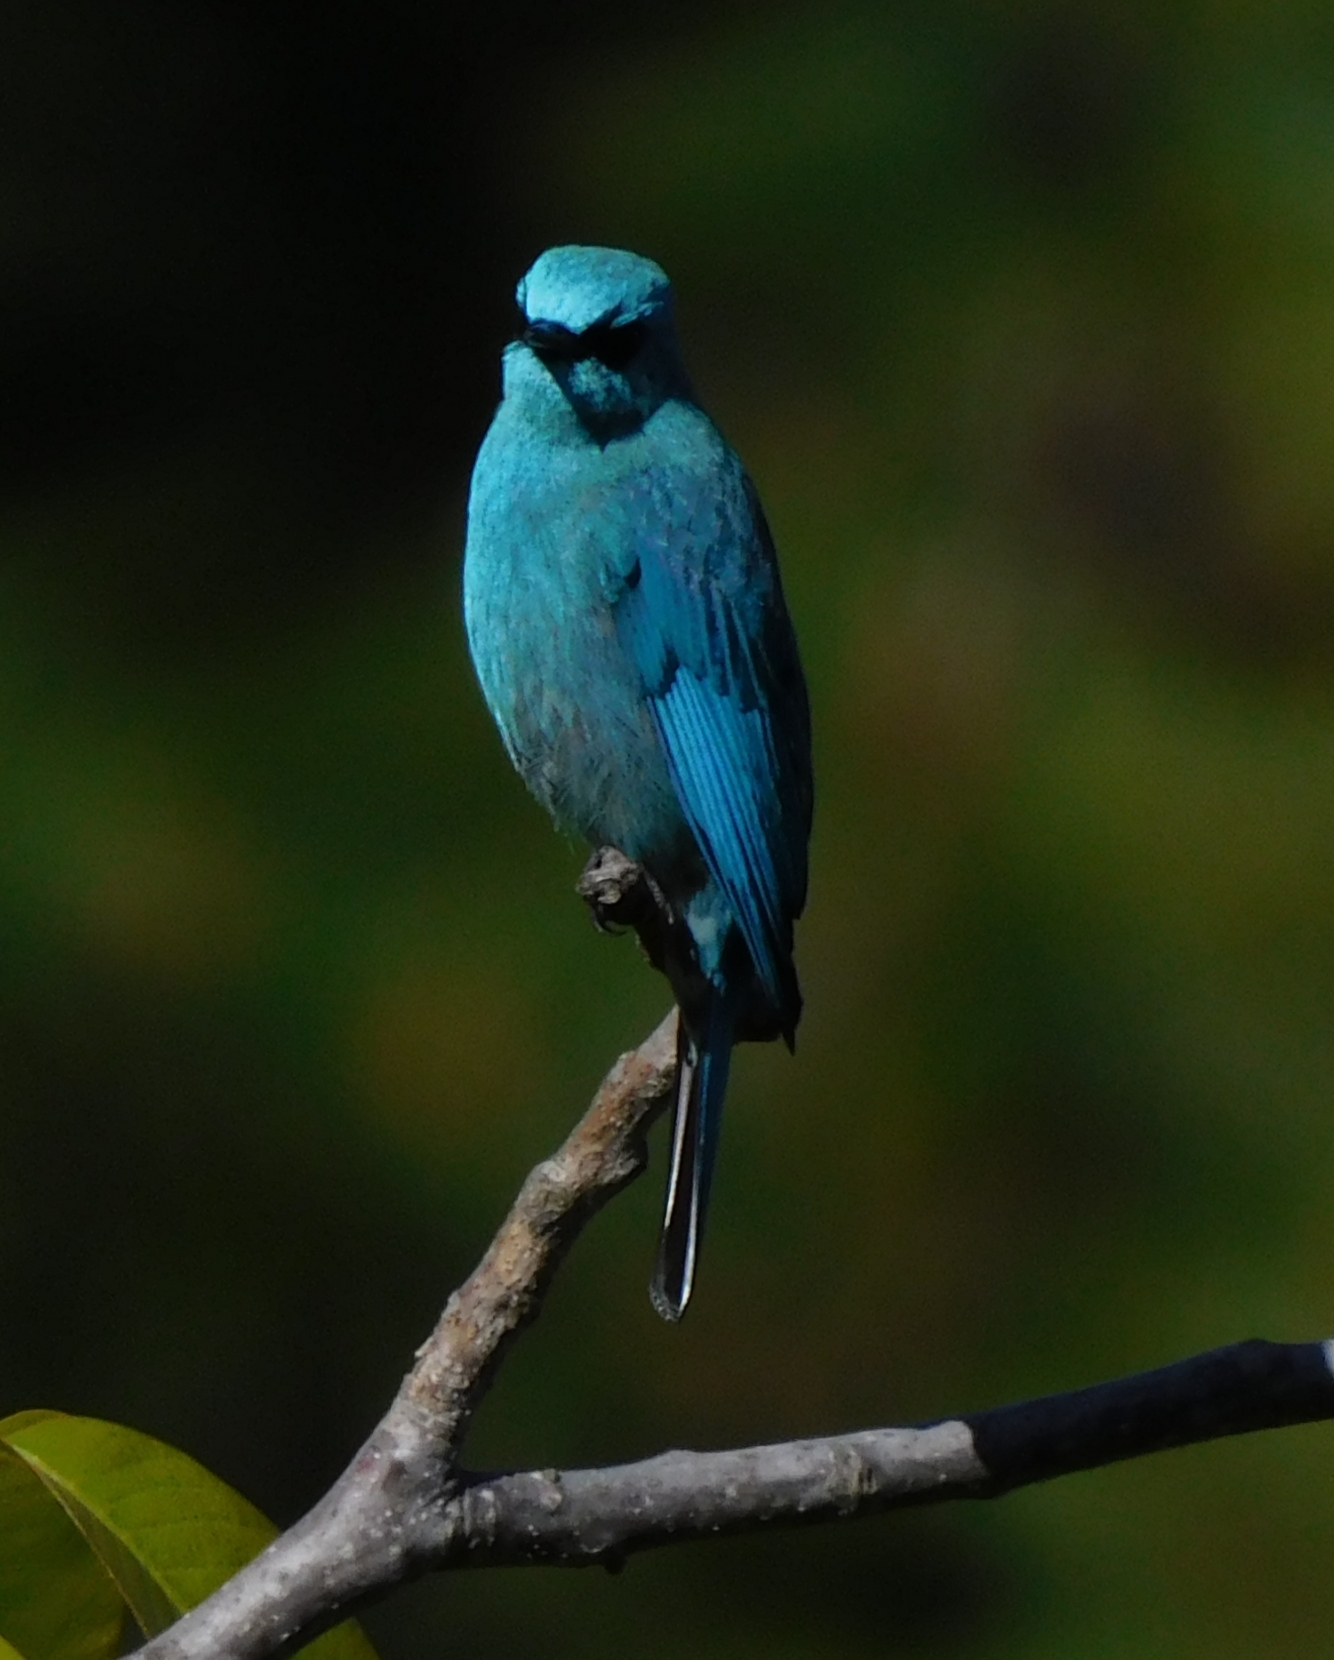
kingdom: Animalia
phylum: Chordata
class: Aves
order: Passeriformes
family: Muscicapidae
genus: Eumyias
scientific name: Eumyias thalassinus
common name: Verditer flycatcher
